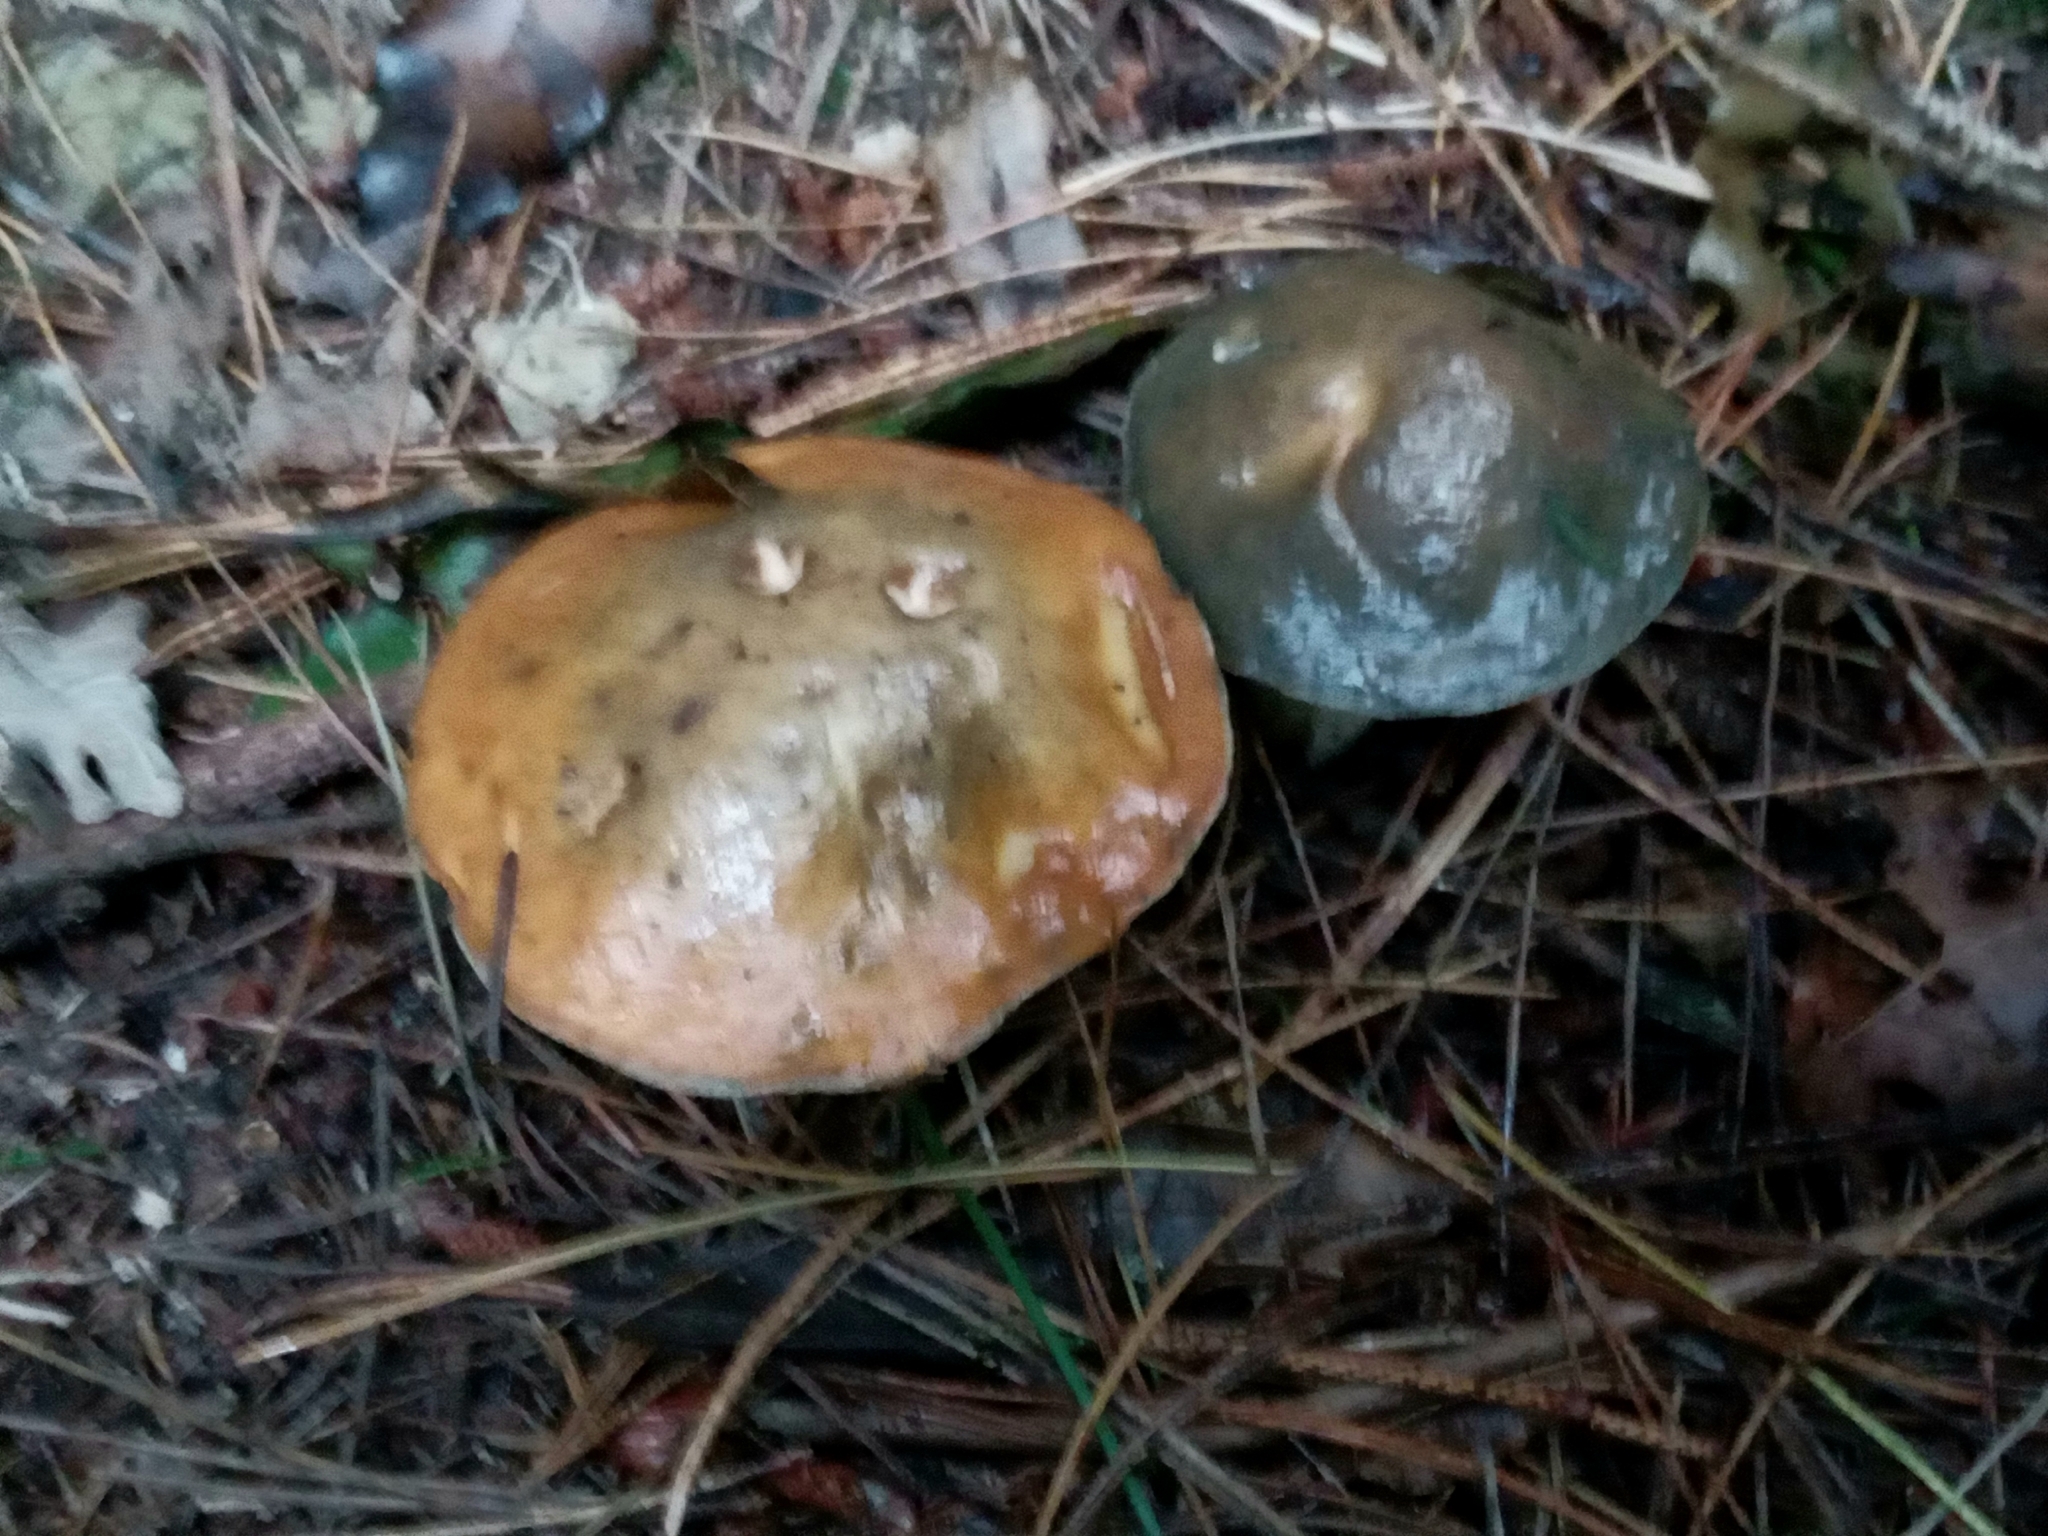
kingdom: Fungi
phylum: Basidiomycota
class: Agaricomycetes
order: Boletales
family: Suillaceae
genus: Suillus
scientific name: Suillus pungens
